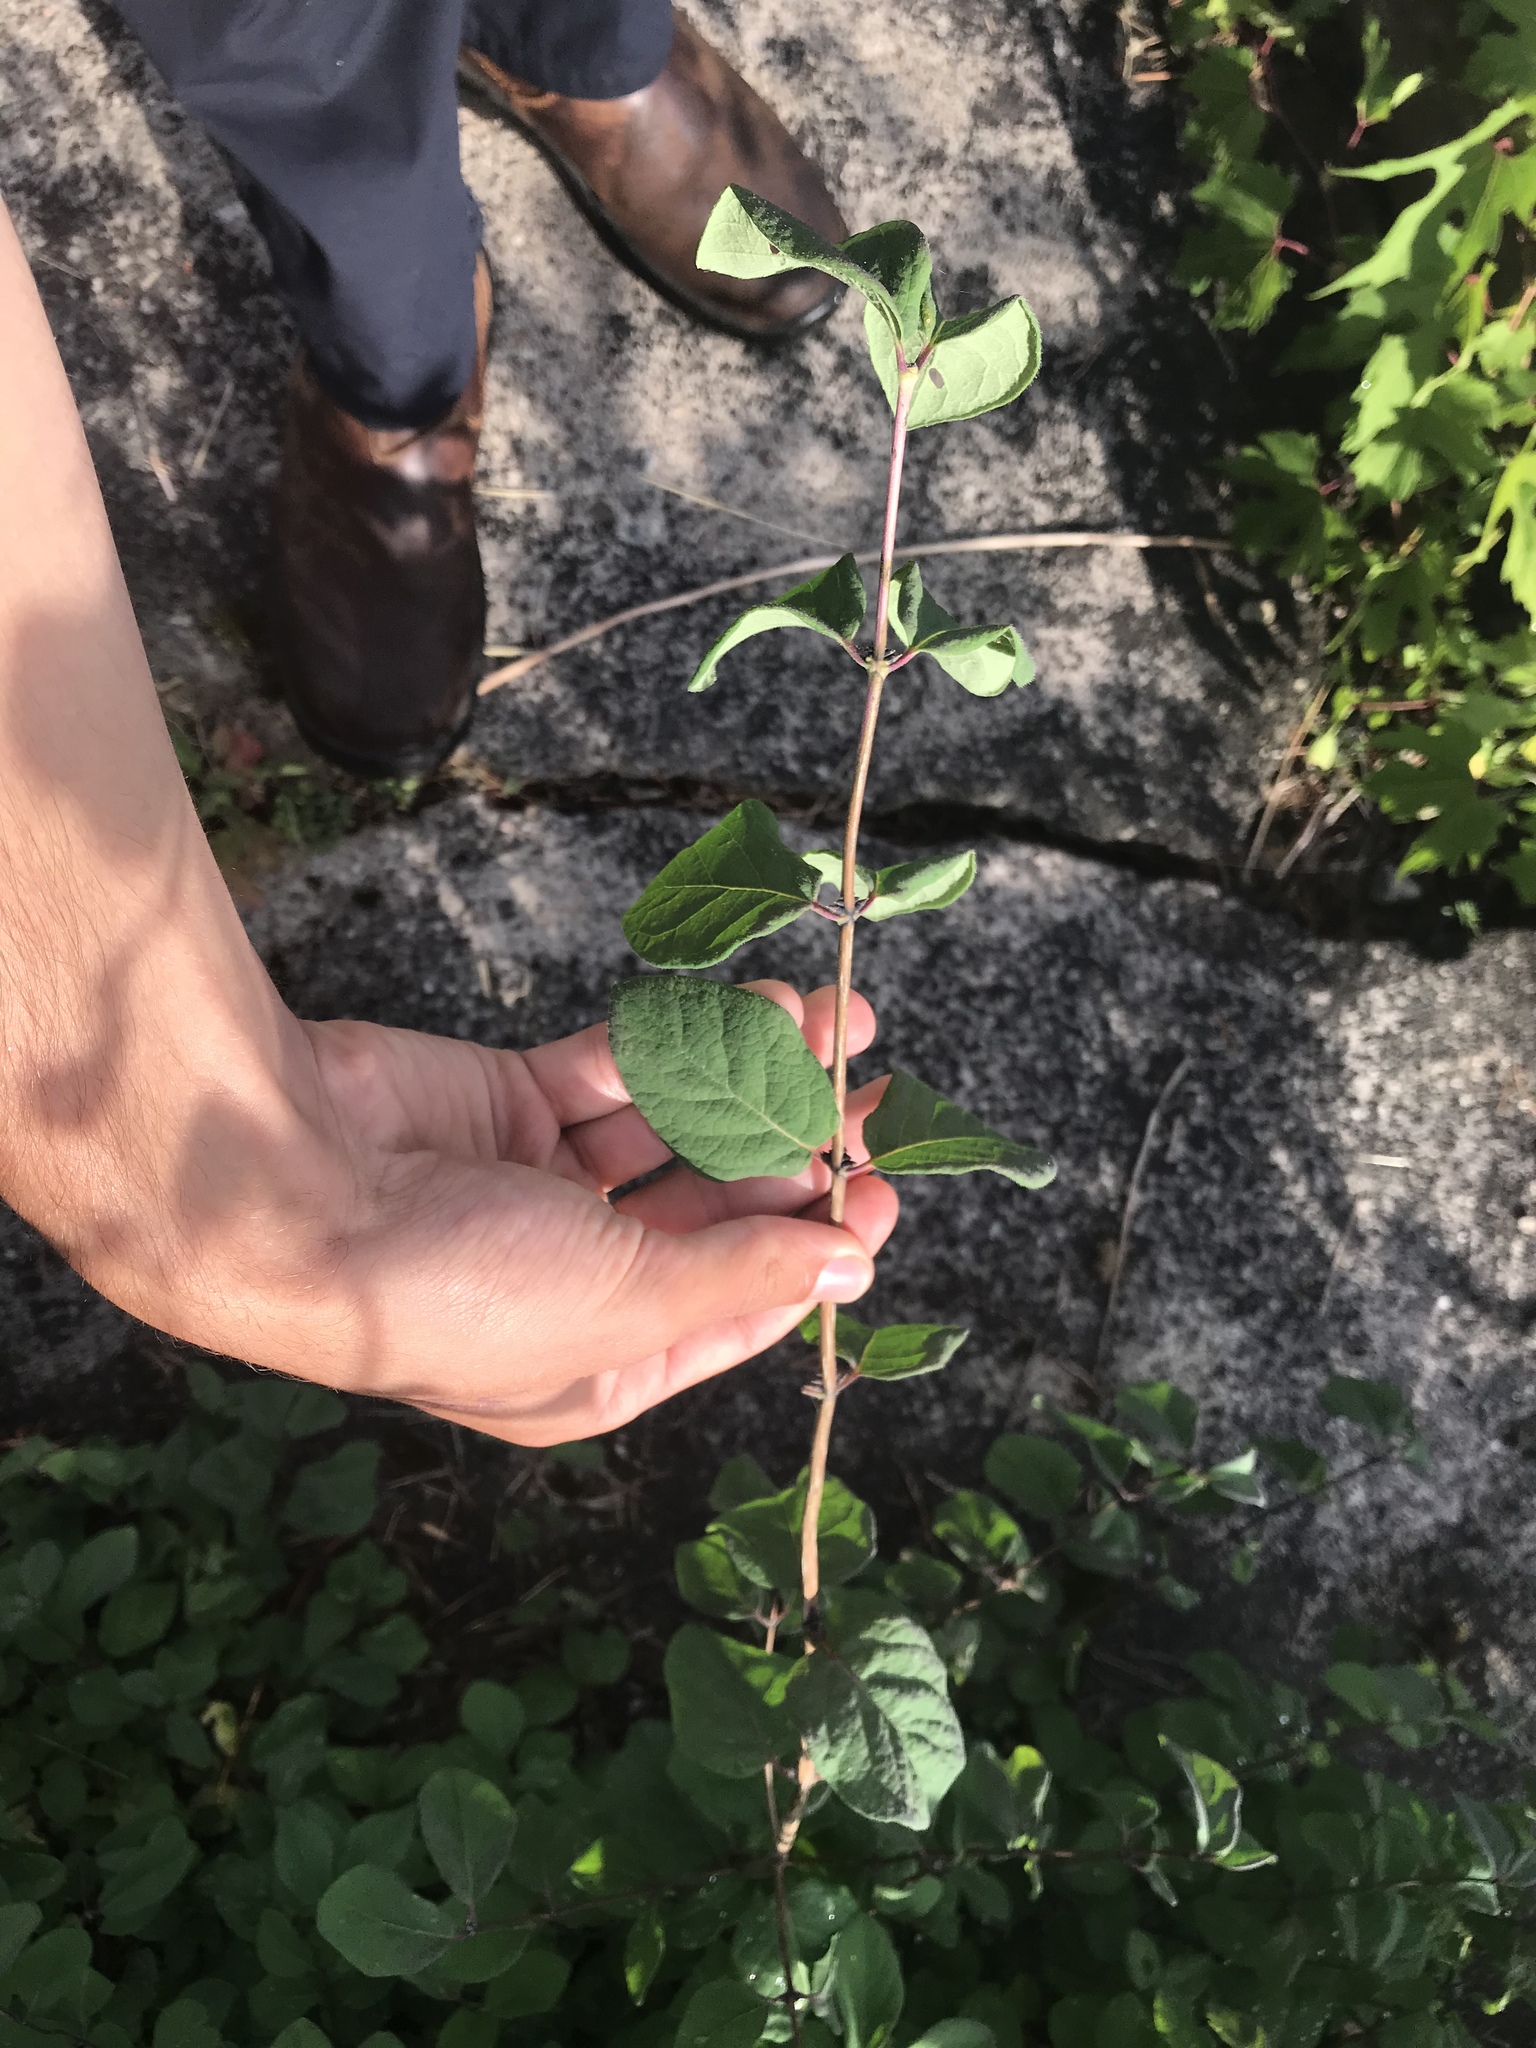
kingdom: Plantae
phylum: Tracheophyta
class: Magnoliopsida
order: Dipsacales
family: Caprifoliaceae
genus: Symphoricarpos
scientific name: Symphoricarpos albus
